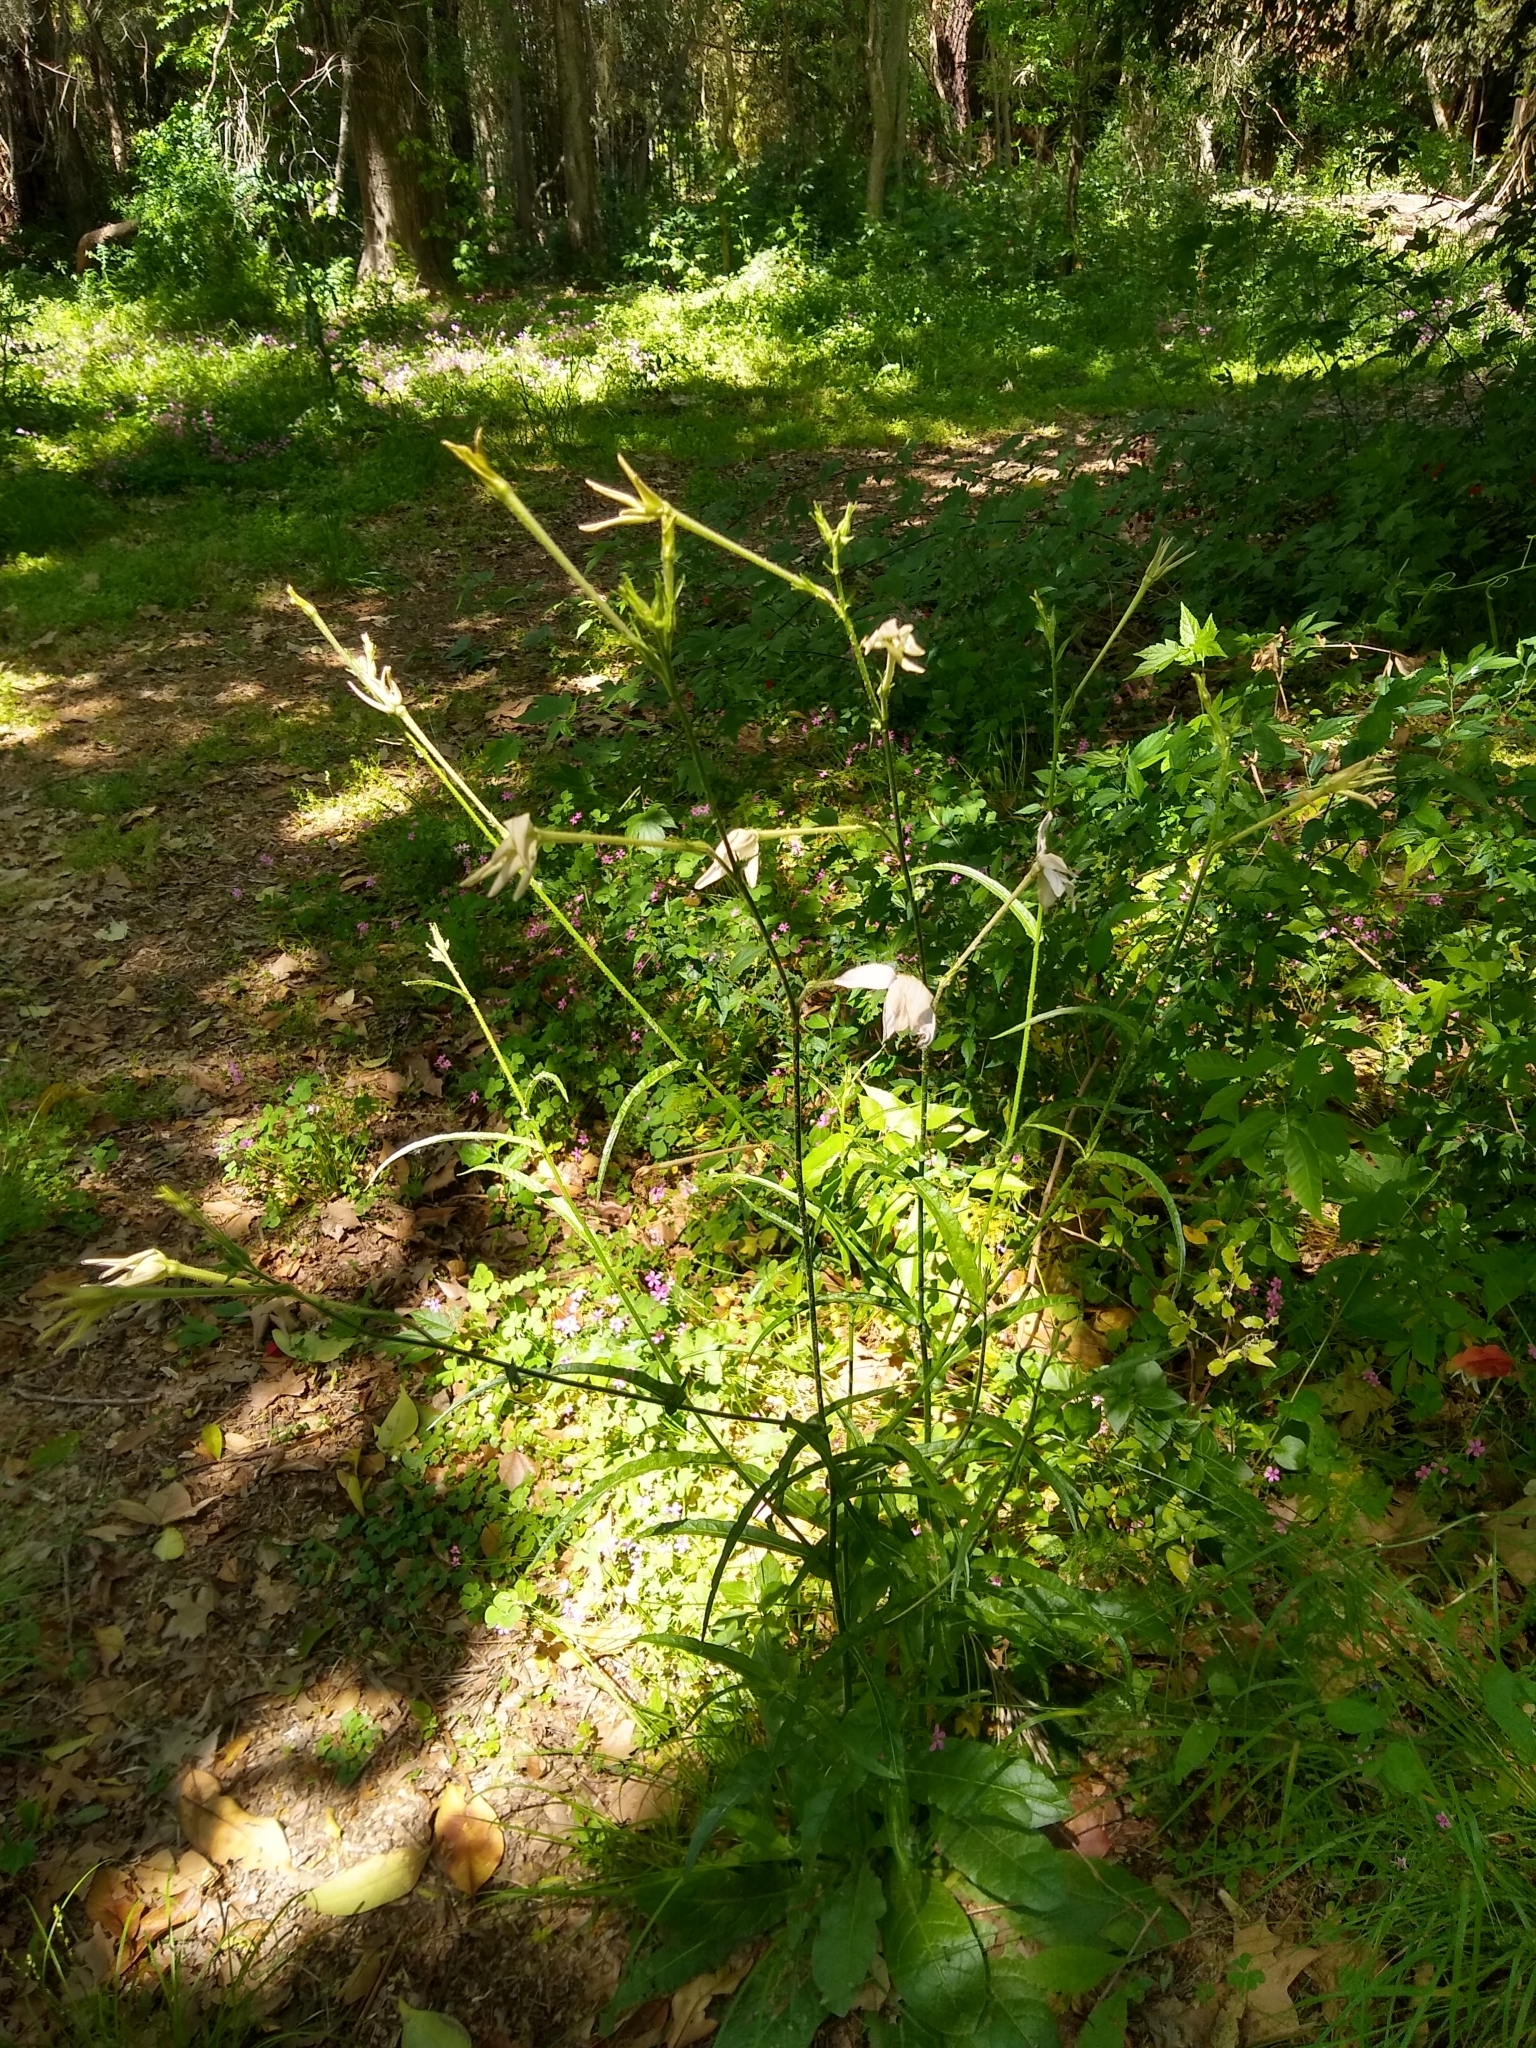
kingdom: Plantae
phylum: Tracheophyta
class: Magnoliopsida
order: Solanales
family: Solanaceae
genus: Nicotiana
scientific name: Nicotiana longiflora
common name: Long-flowered tobacco
